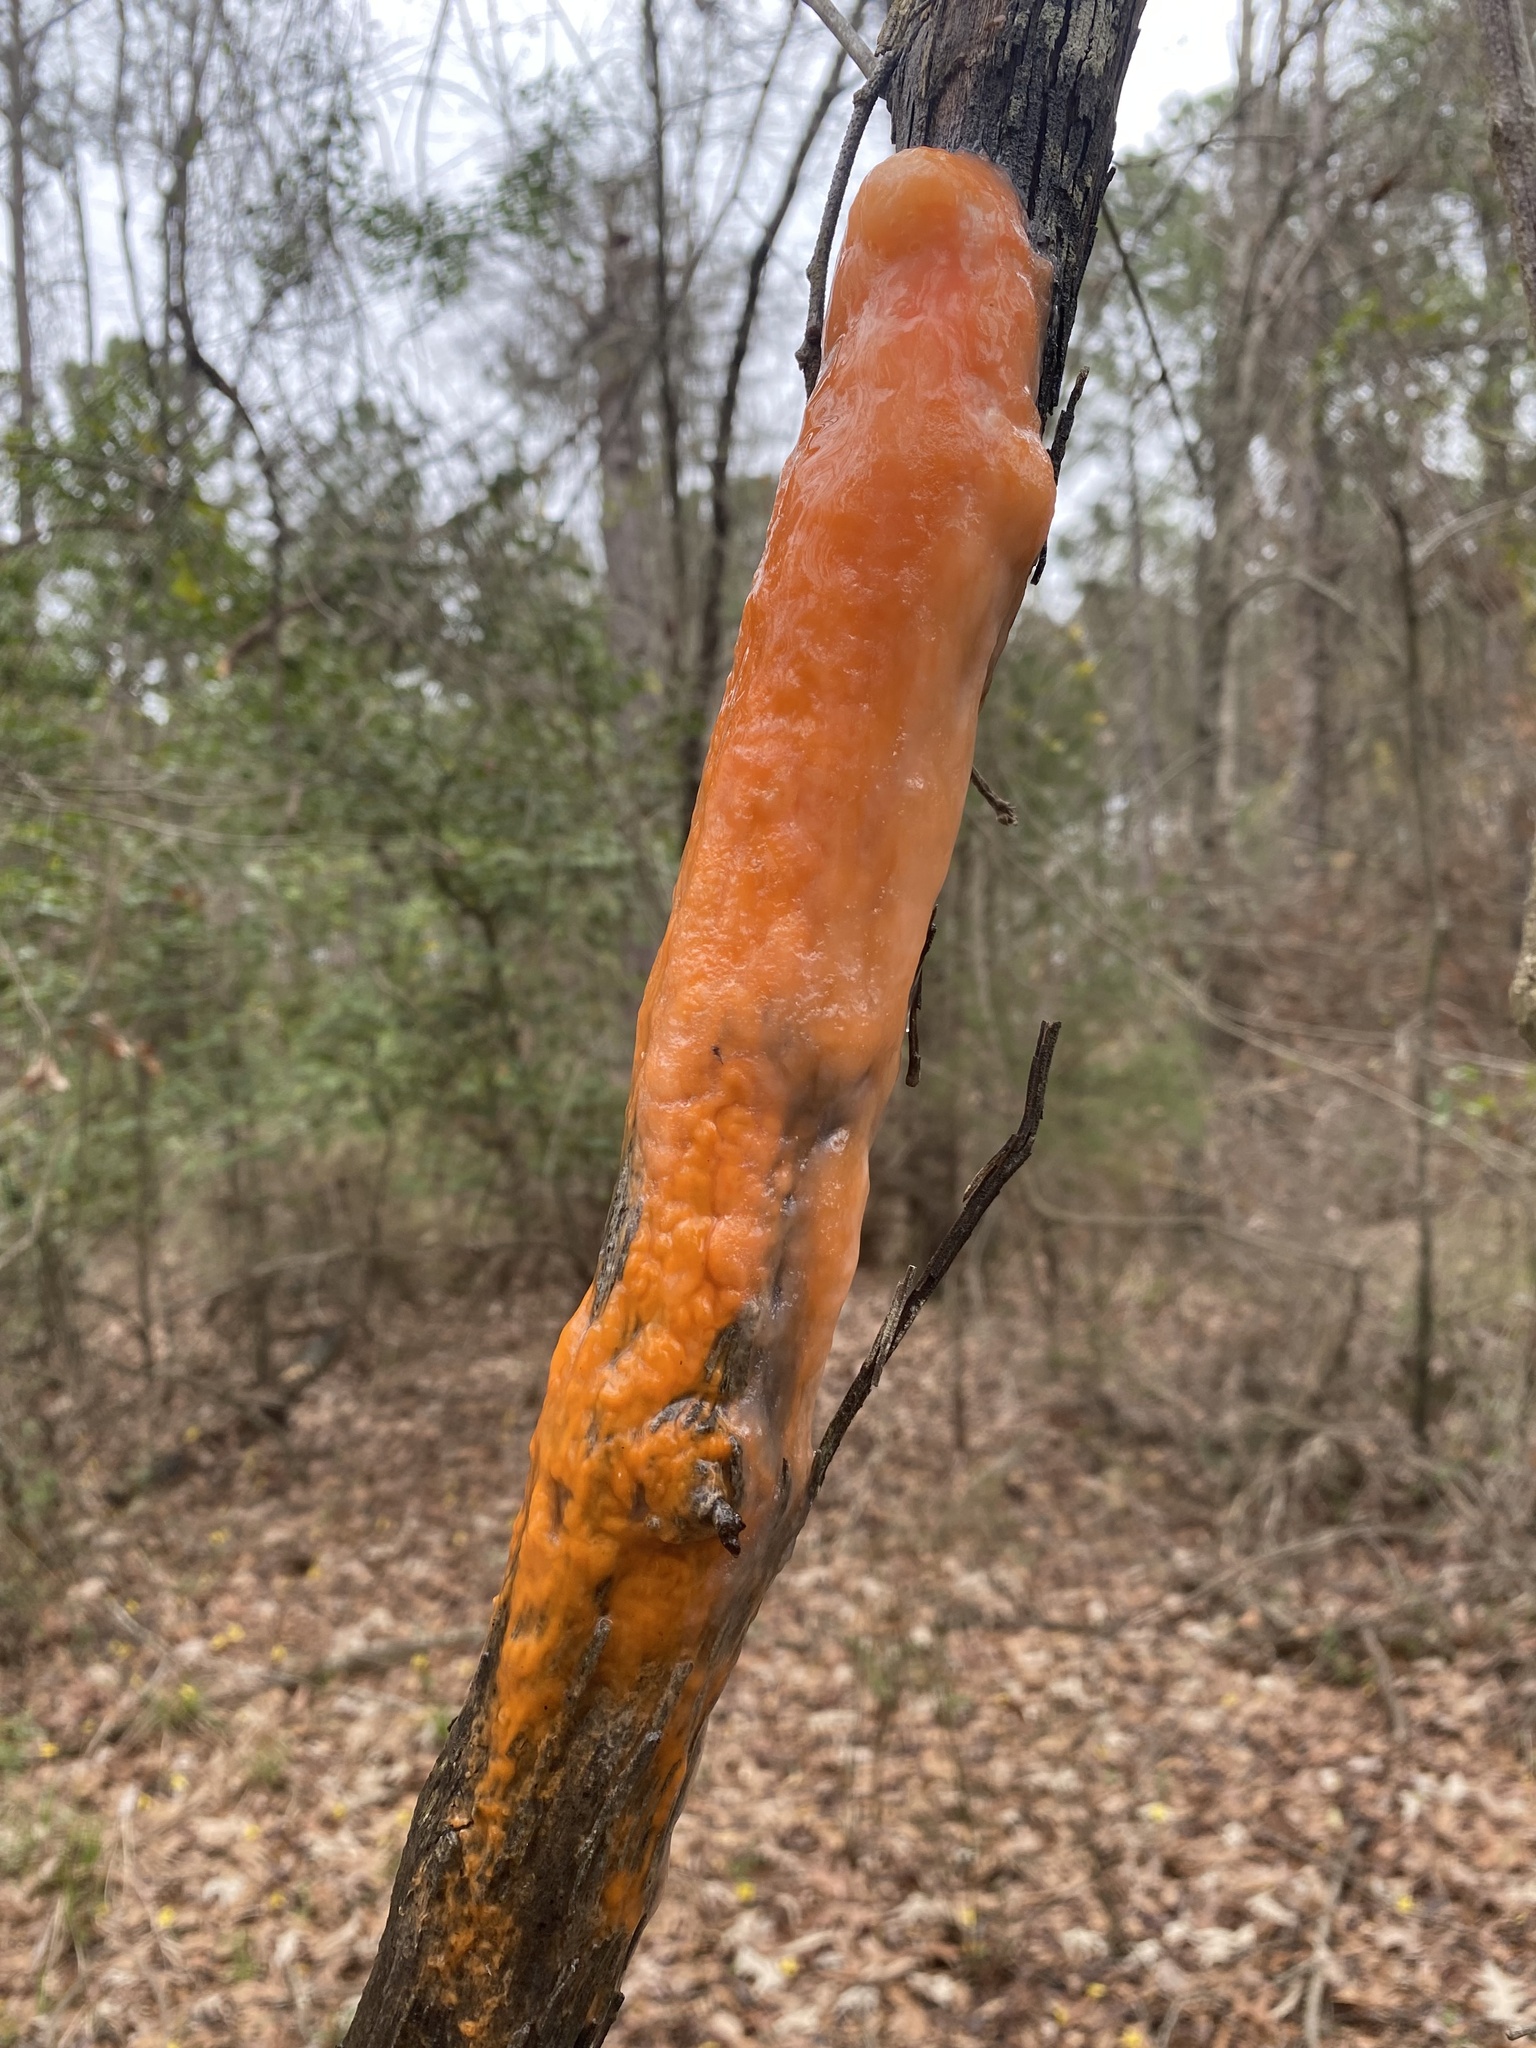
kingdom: Fungi
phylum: Ascomycota
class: Sordariomycetes
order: Hypocreales
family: Nectriaceae
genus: Fusicolla
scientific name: Fusicolla merismoides
